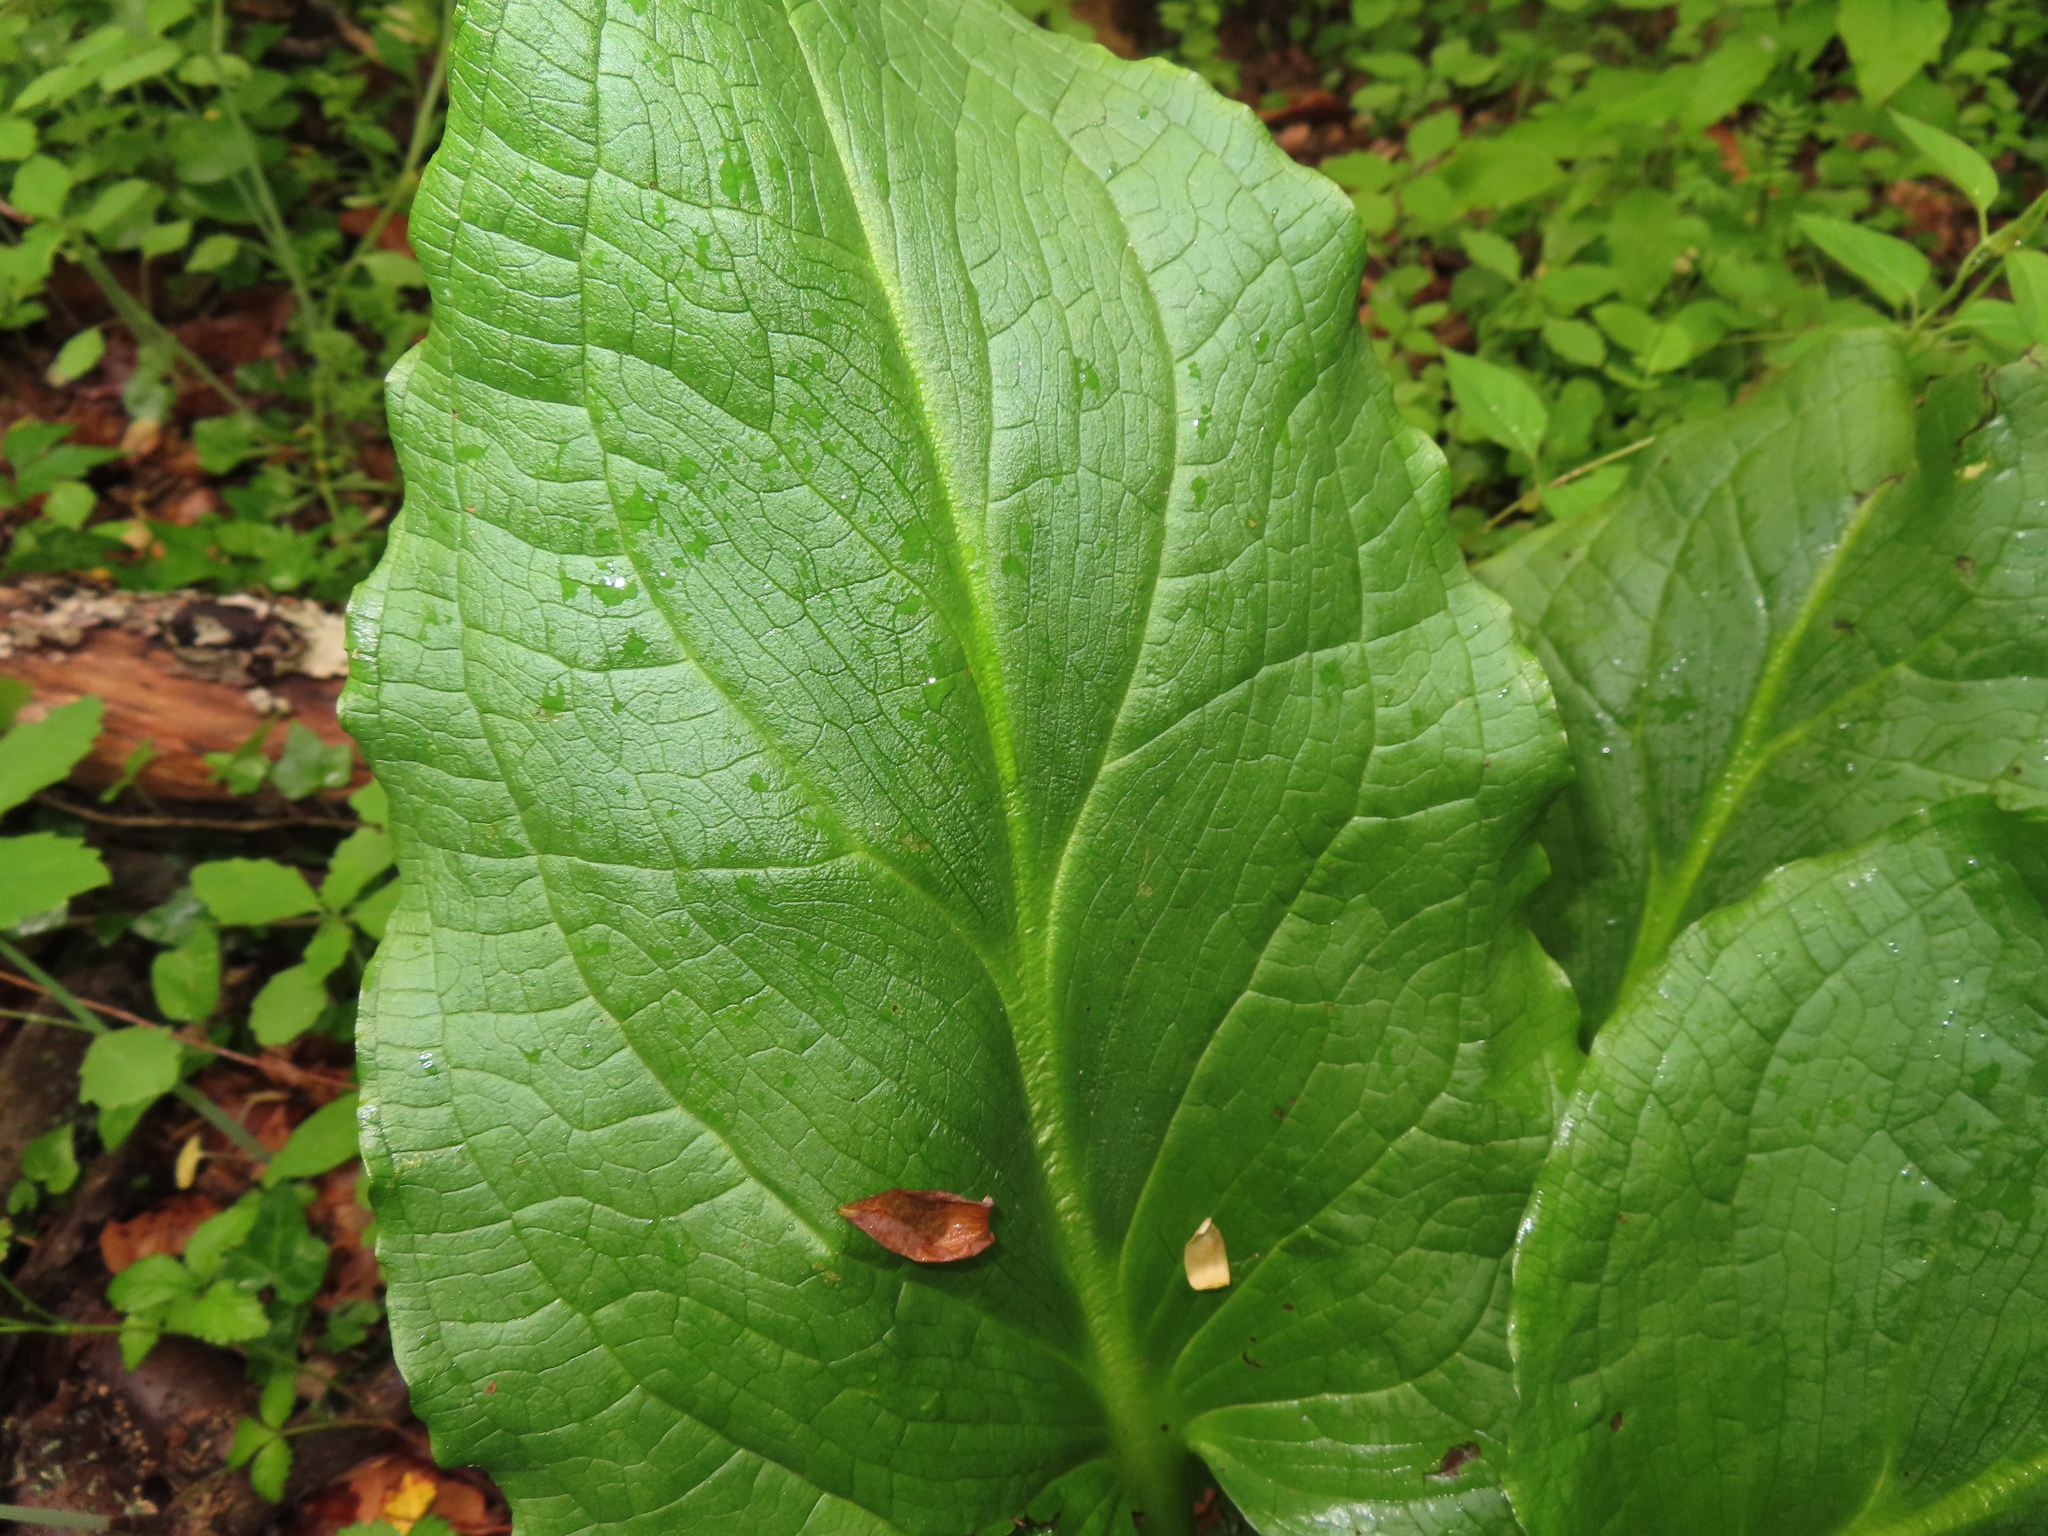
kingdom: Plantae
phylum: Tracheophyta
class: Liliopsida
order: Alismatales
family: Araceae
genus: Symplocarpus
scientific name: Symplocarpus foetidus
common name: Eastern skunk cabbage
